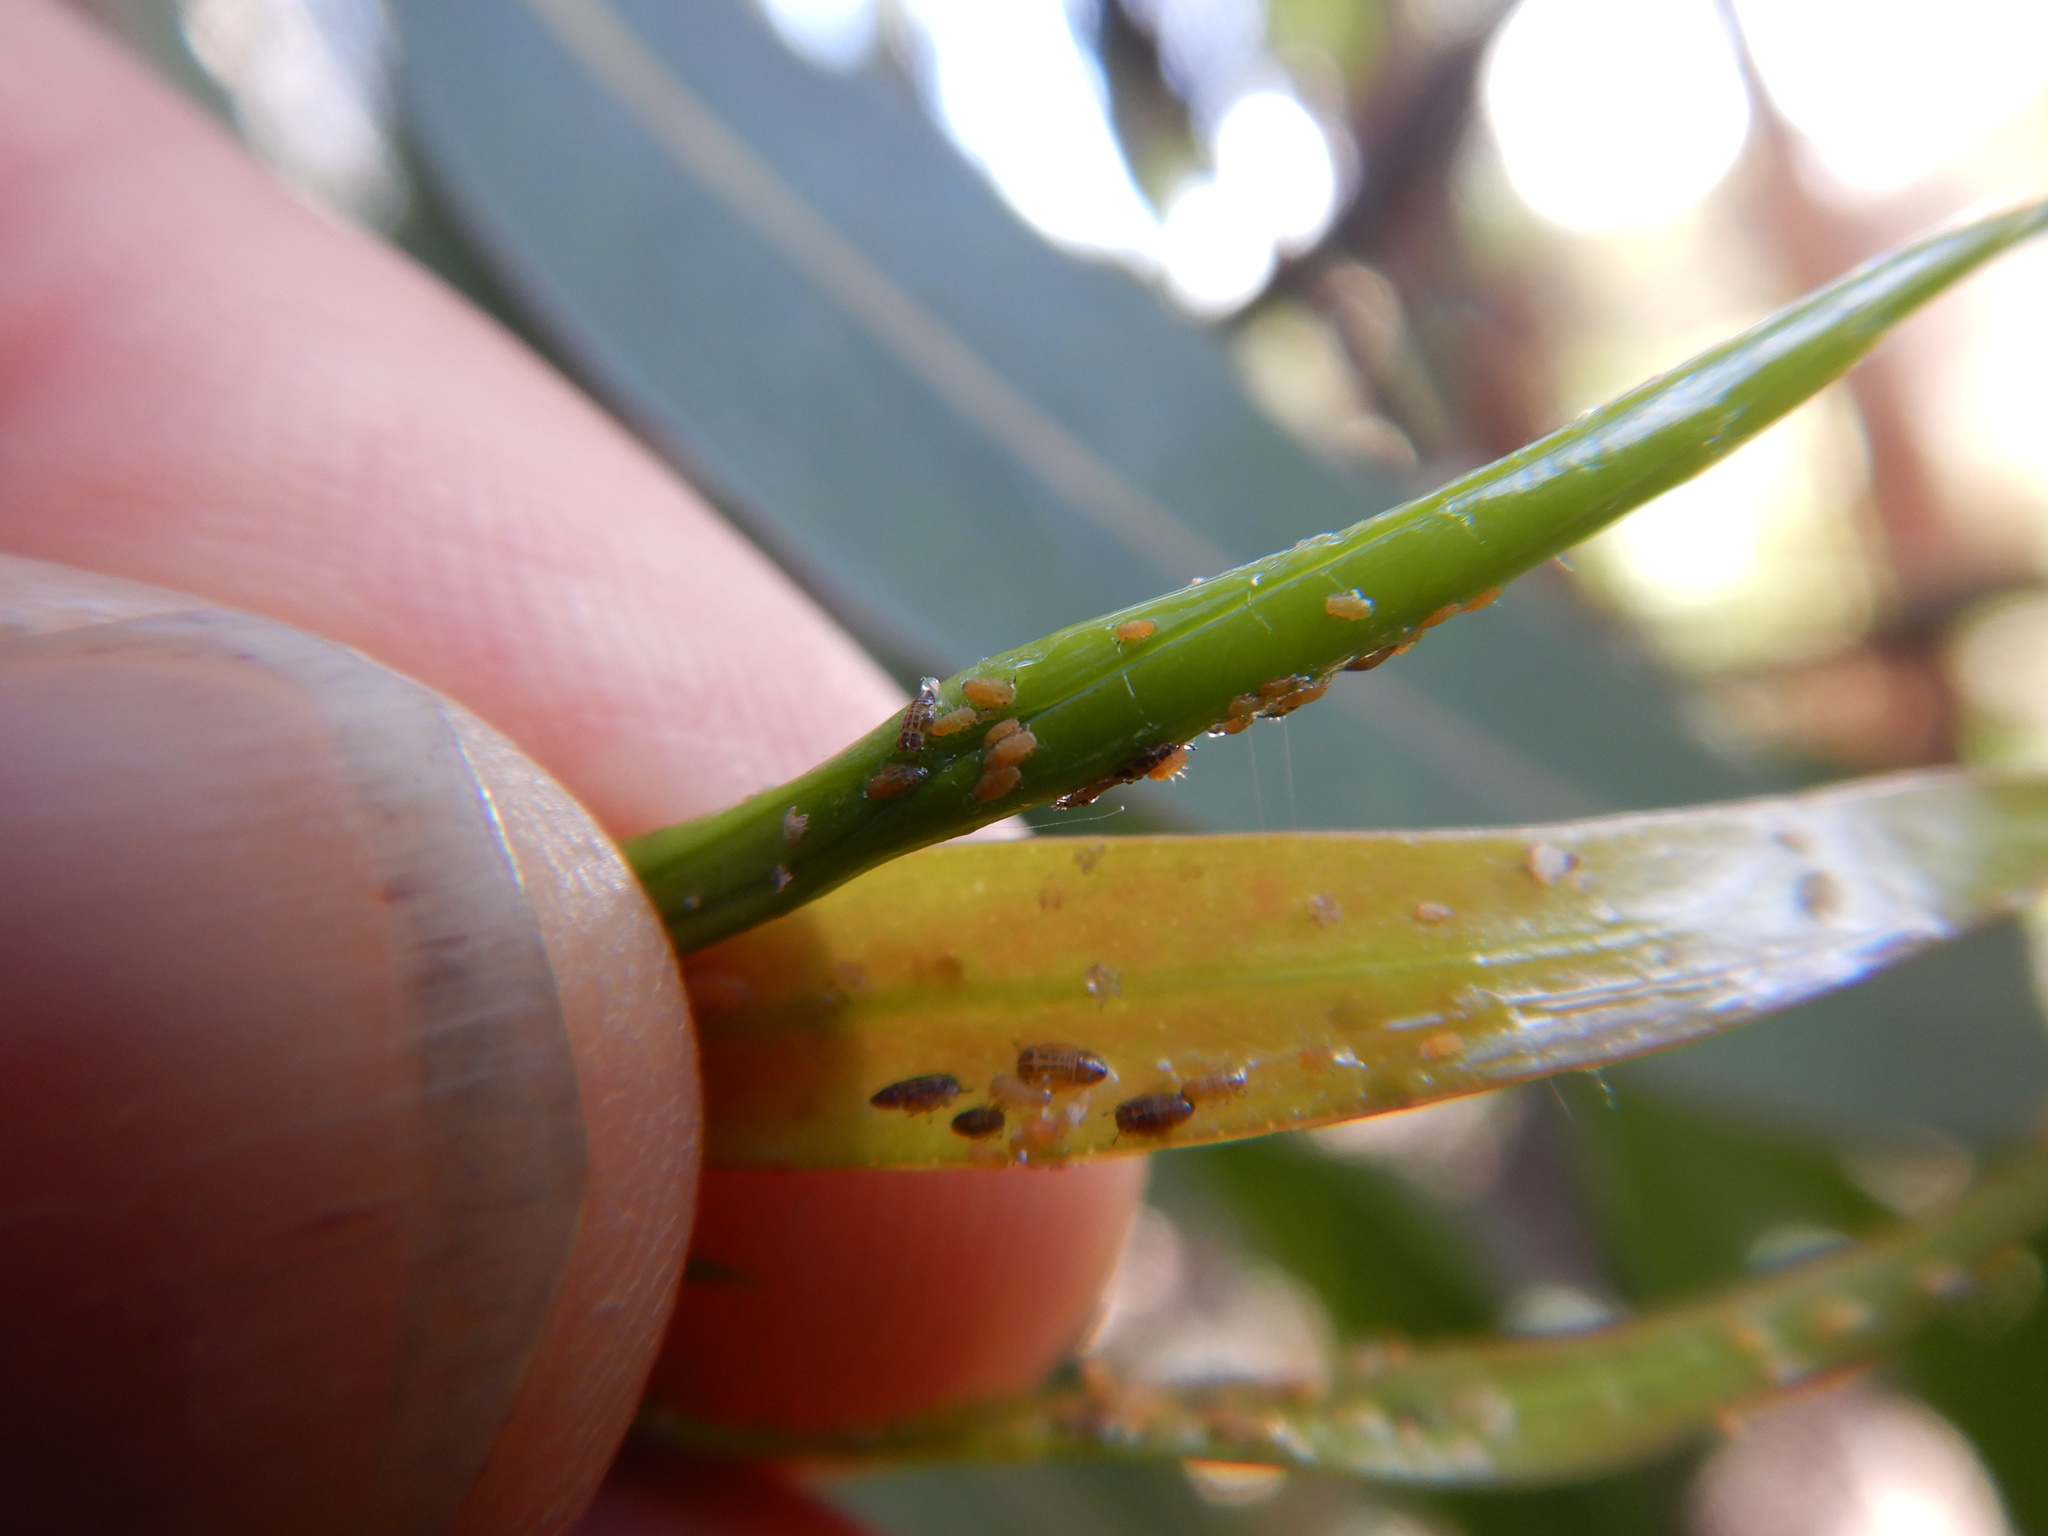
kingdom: Animalia
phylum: Arthropoda
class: Insecta
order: Hemiptera
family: Aphalaridae
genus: Ctenarytaina
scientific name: Ctenarytaina spatulata
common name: Rose gum psillid
